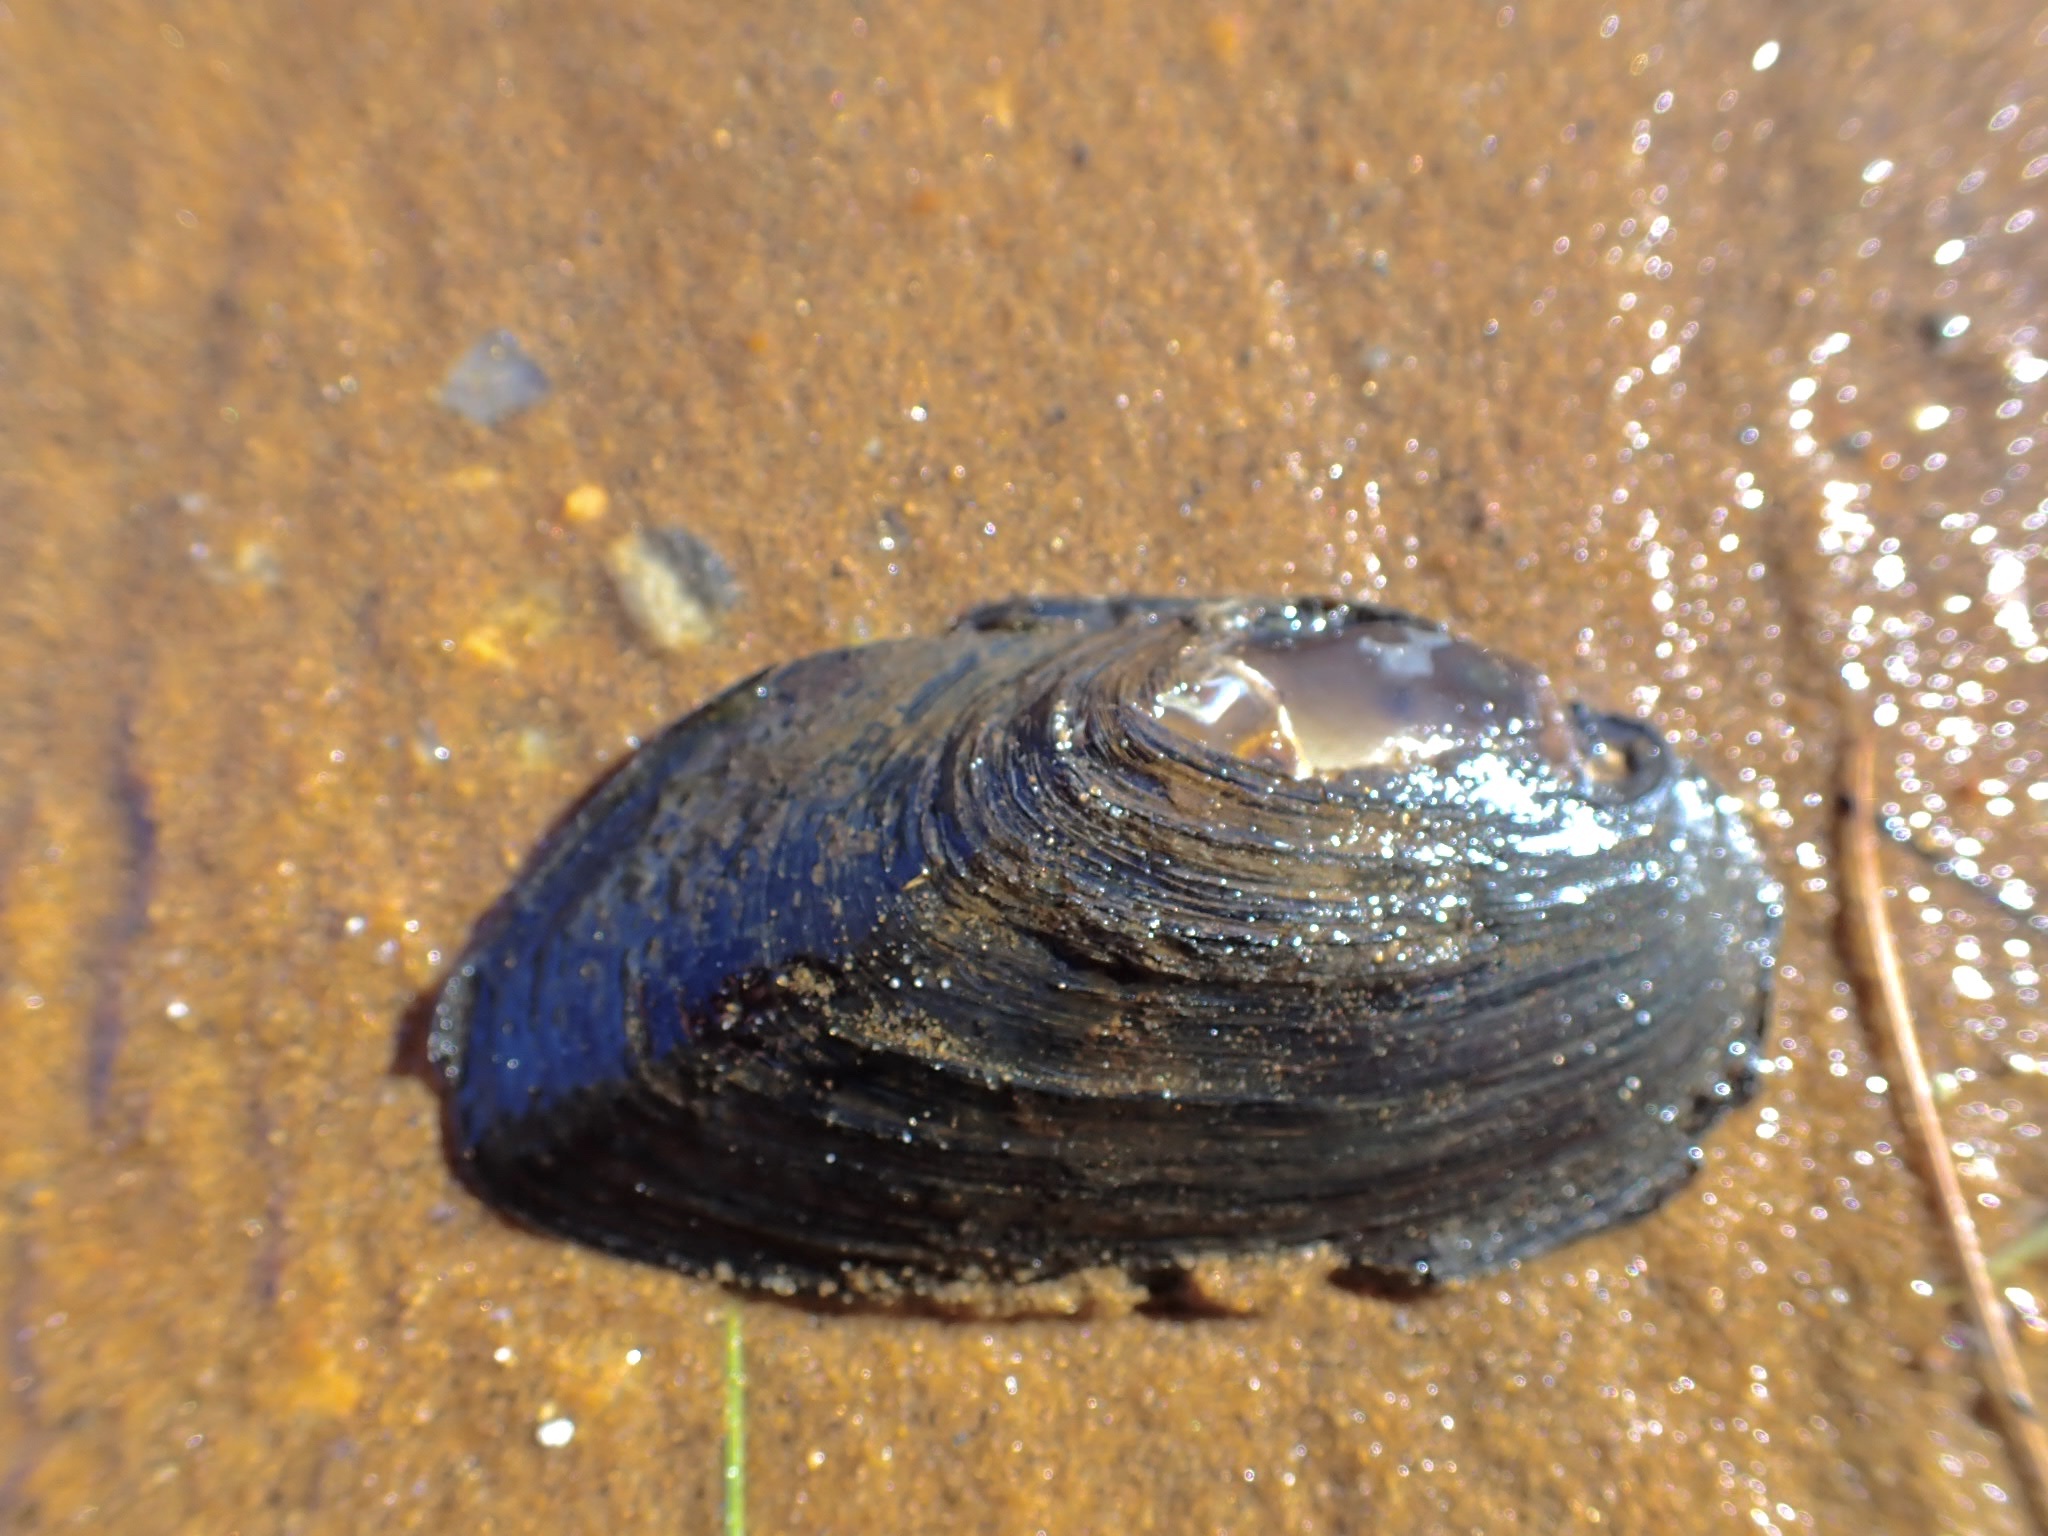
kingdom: Animalia
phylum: Mollusca
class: Bivalvia
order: Unionida
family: Unionidae
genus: Elliptio
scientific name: Elliptio complanata
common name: Eastern elliptio
